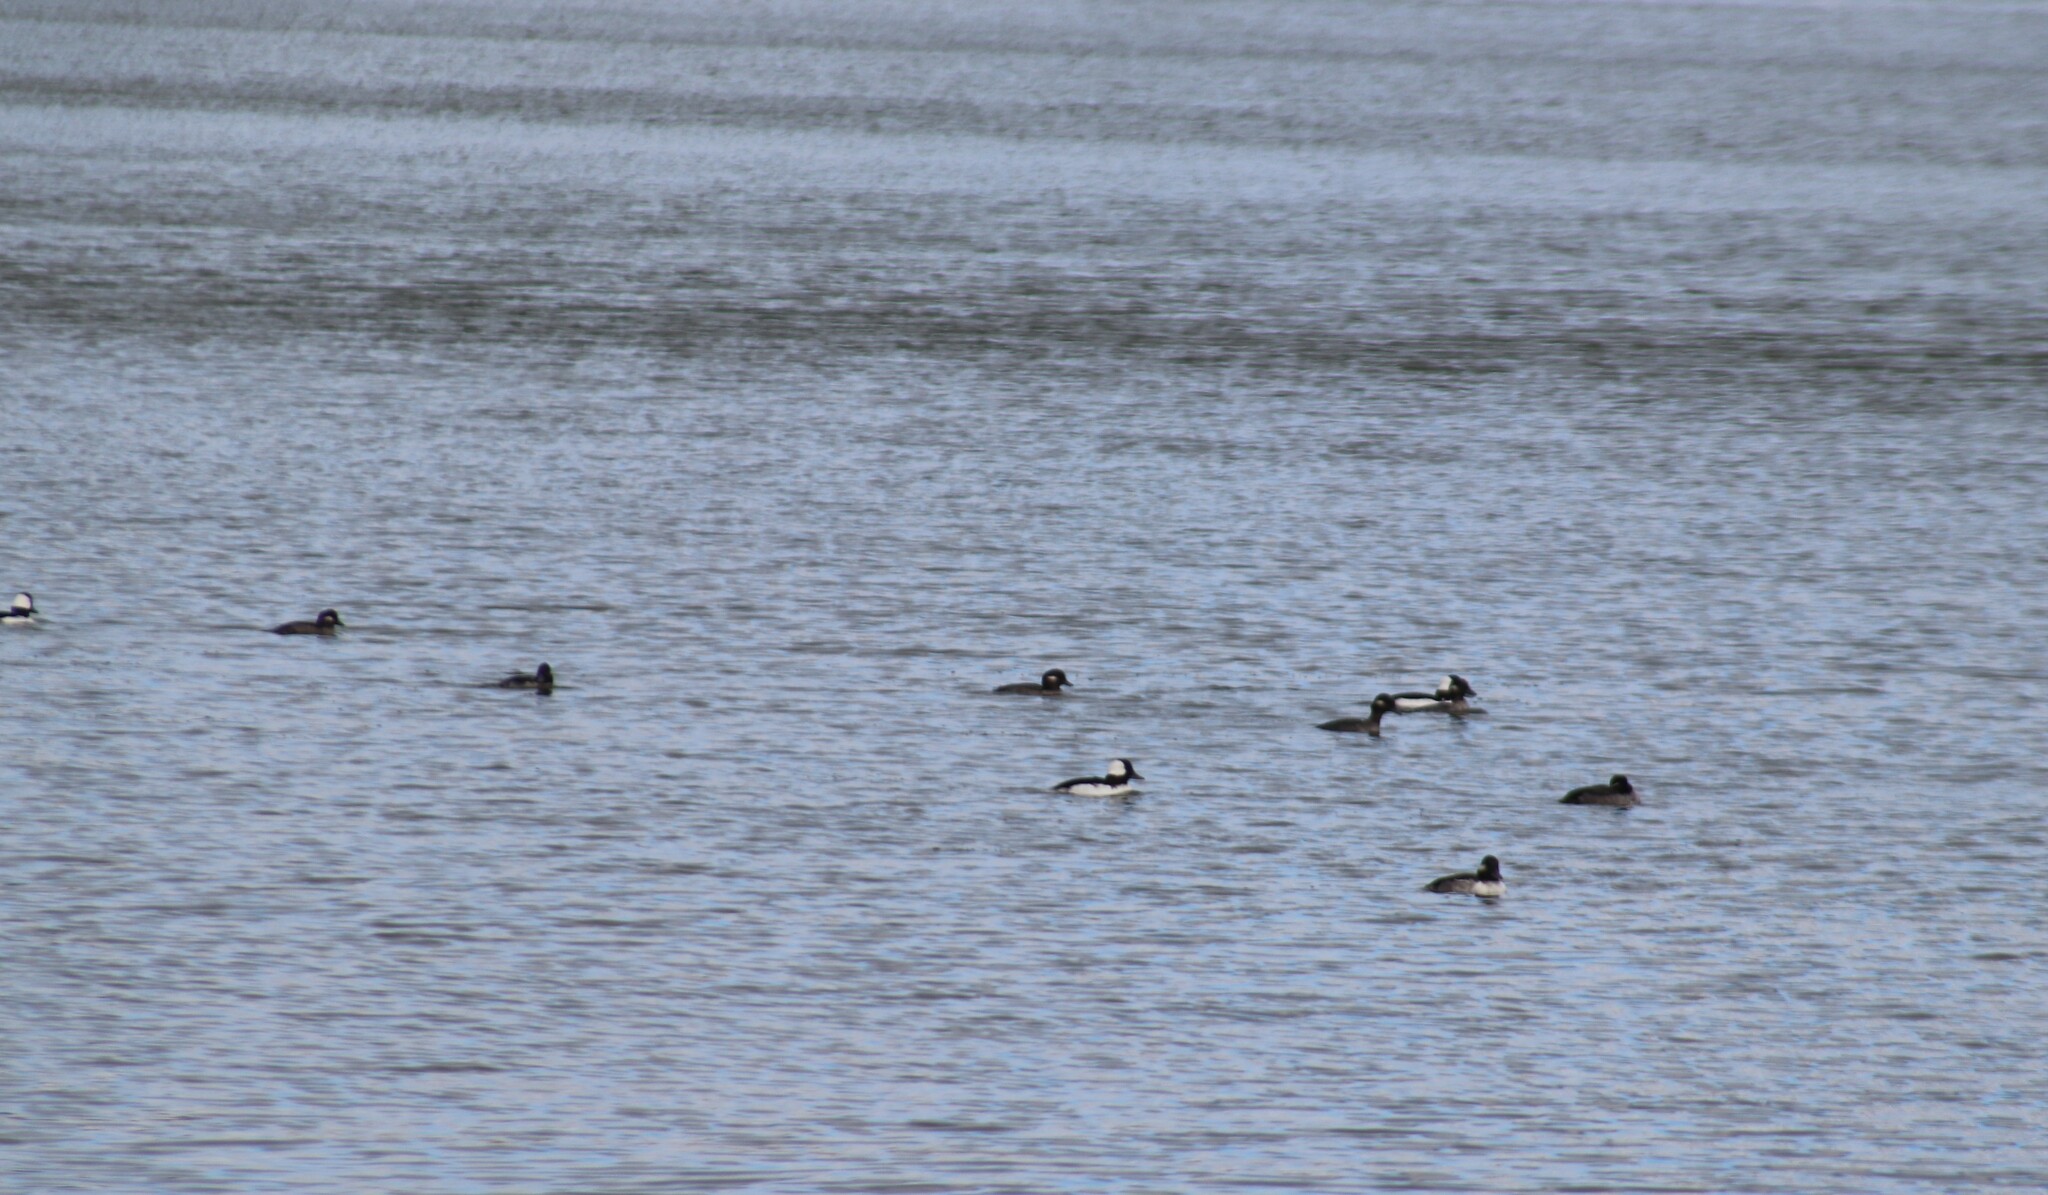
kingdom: Animalia
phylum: Chordata
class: Aves
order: Anseriformes
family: Anatidae
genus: Bucephala
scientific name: Bucephala albeola
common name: Bufflehead
